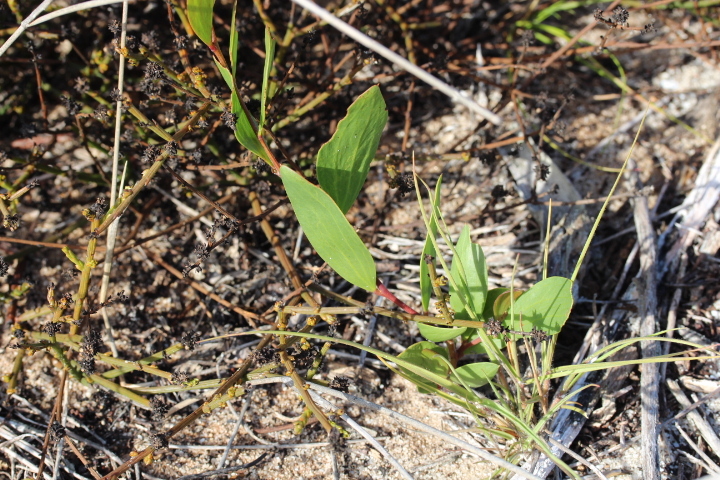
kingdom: Plantae
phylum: Tracheophyta
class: Magnoliopsida
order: Fabales
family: Fabaceae
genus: Acacia
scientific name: Acacia cyclops
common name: Coastal wattle
